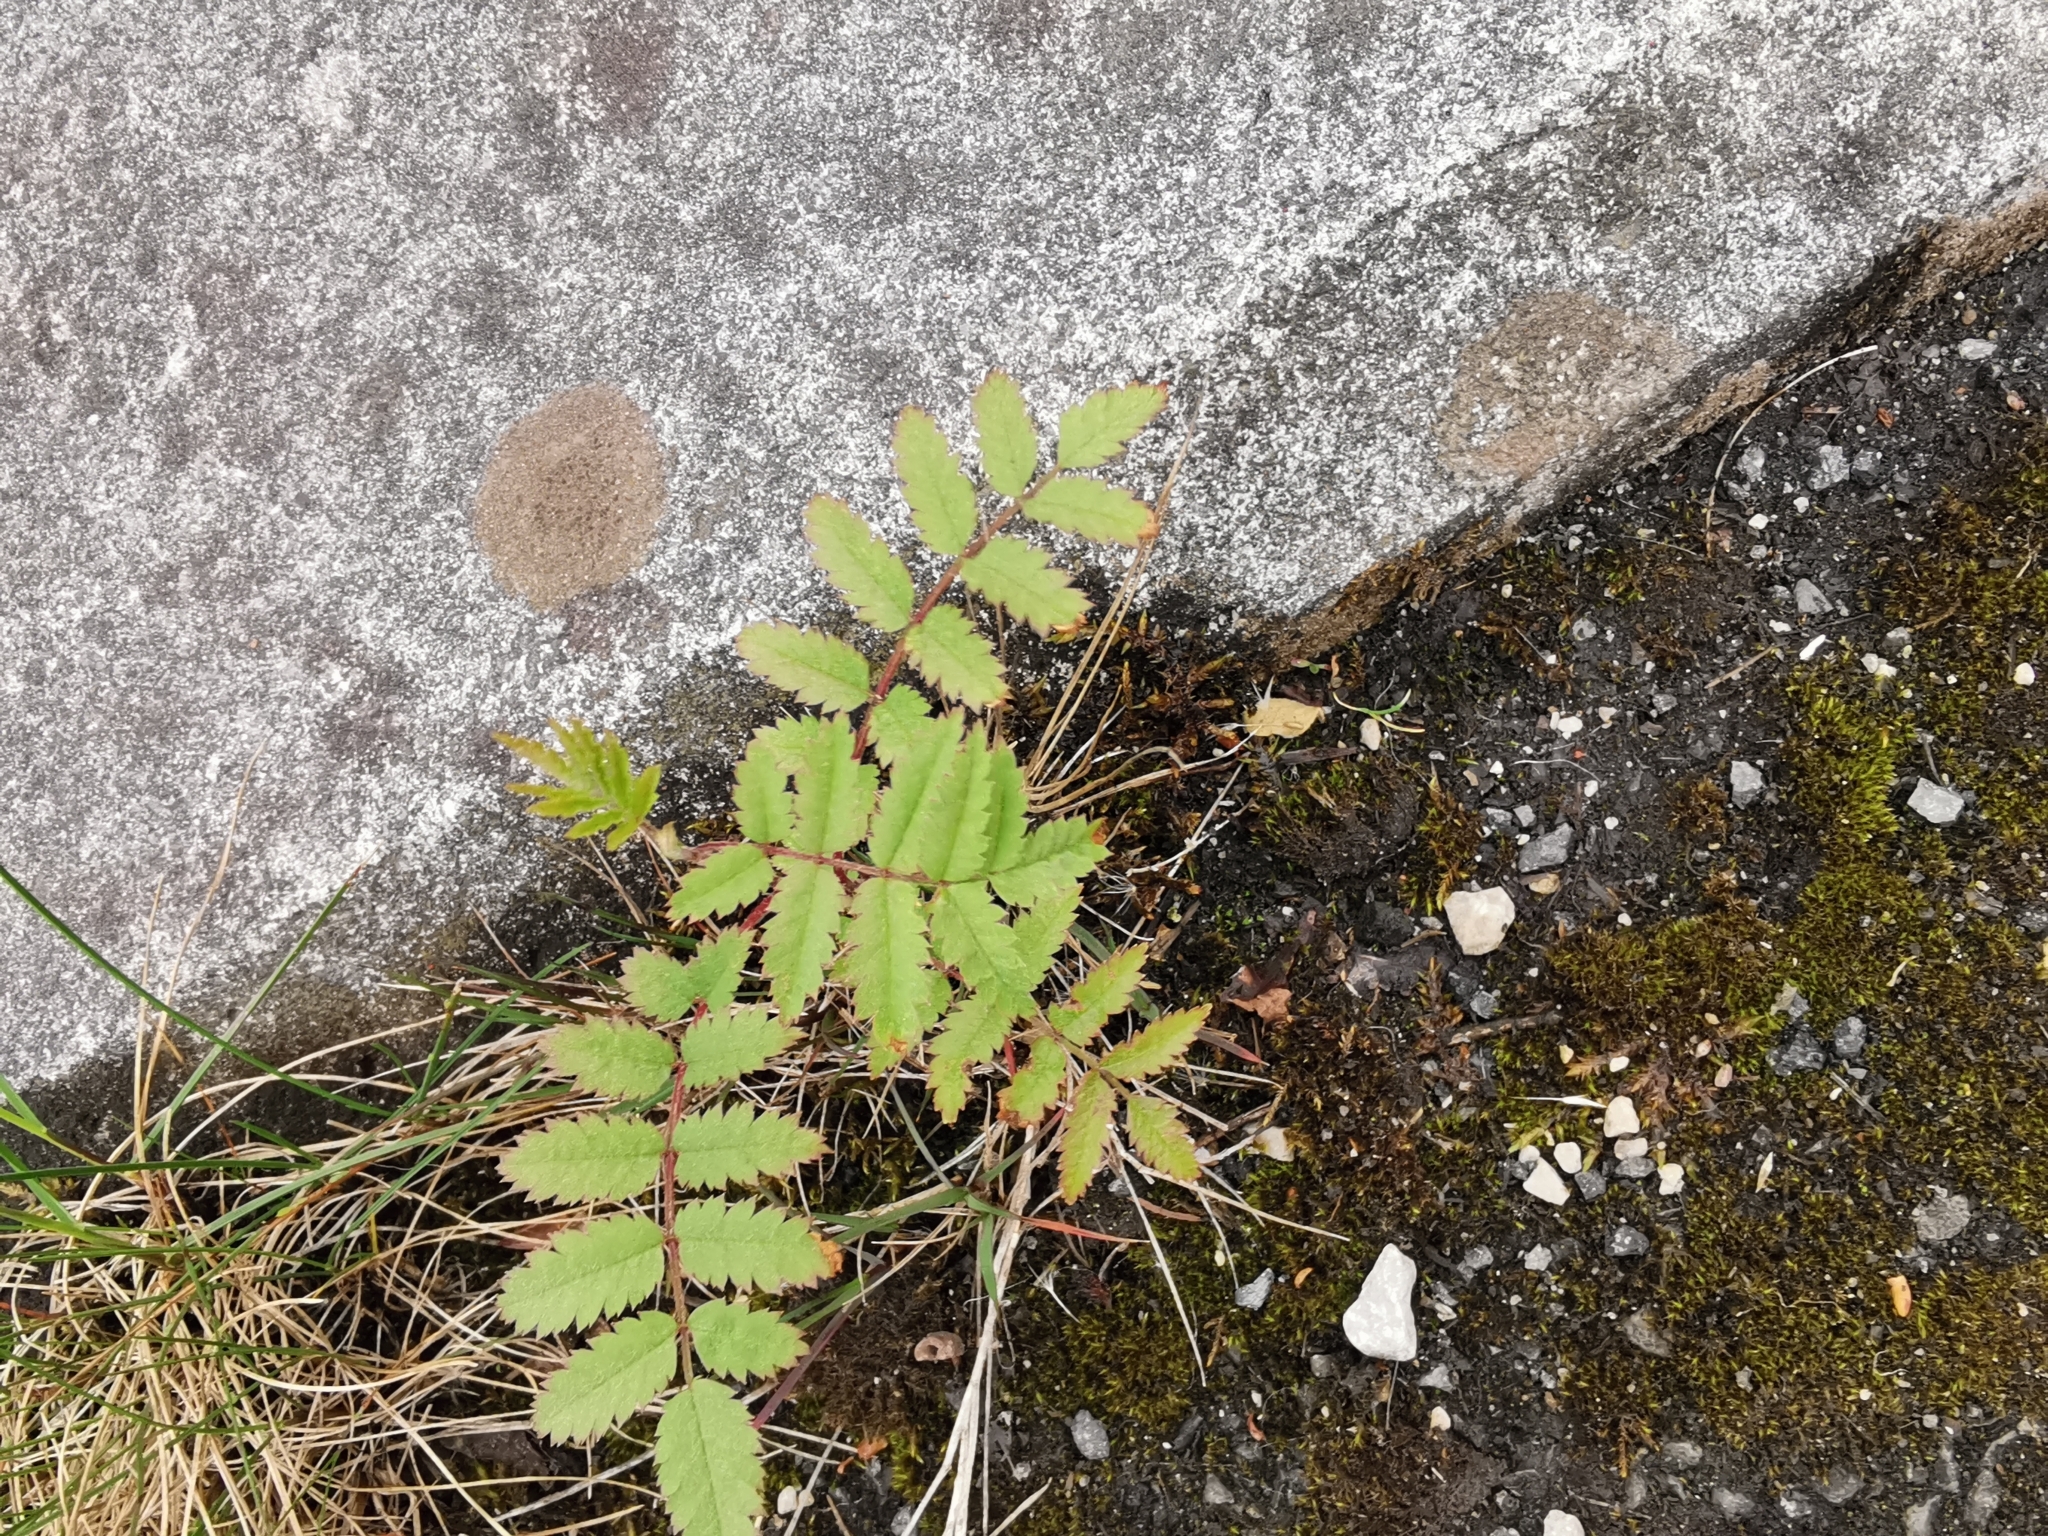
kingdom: Plantae
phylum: Tracheophyta
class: Magnoliopsida
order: Rosales
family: Rosaceae
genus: Sorbus
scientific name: Sorbus aucuparia
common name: Rowan
